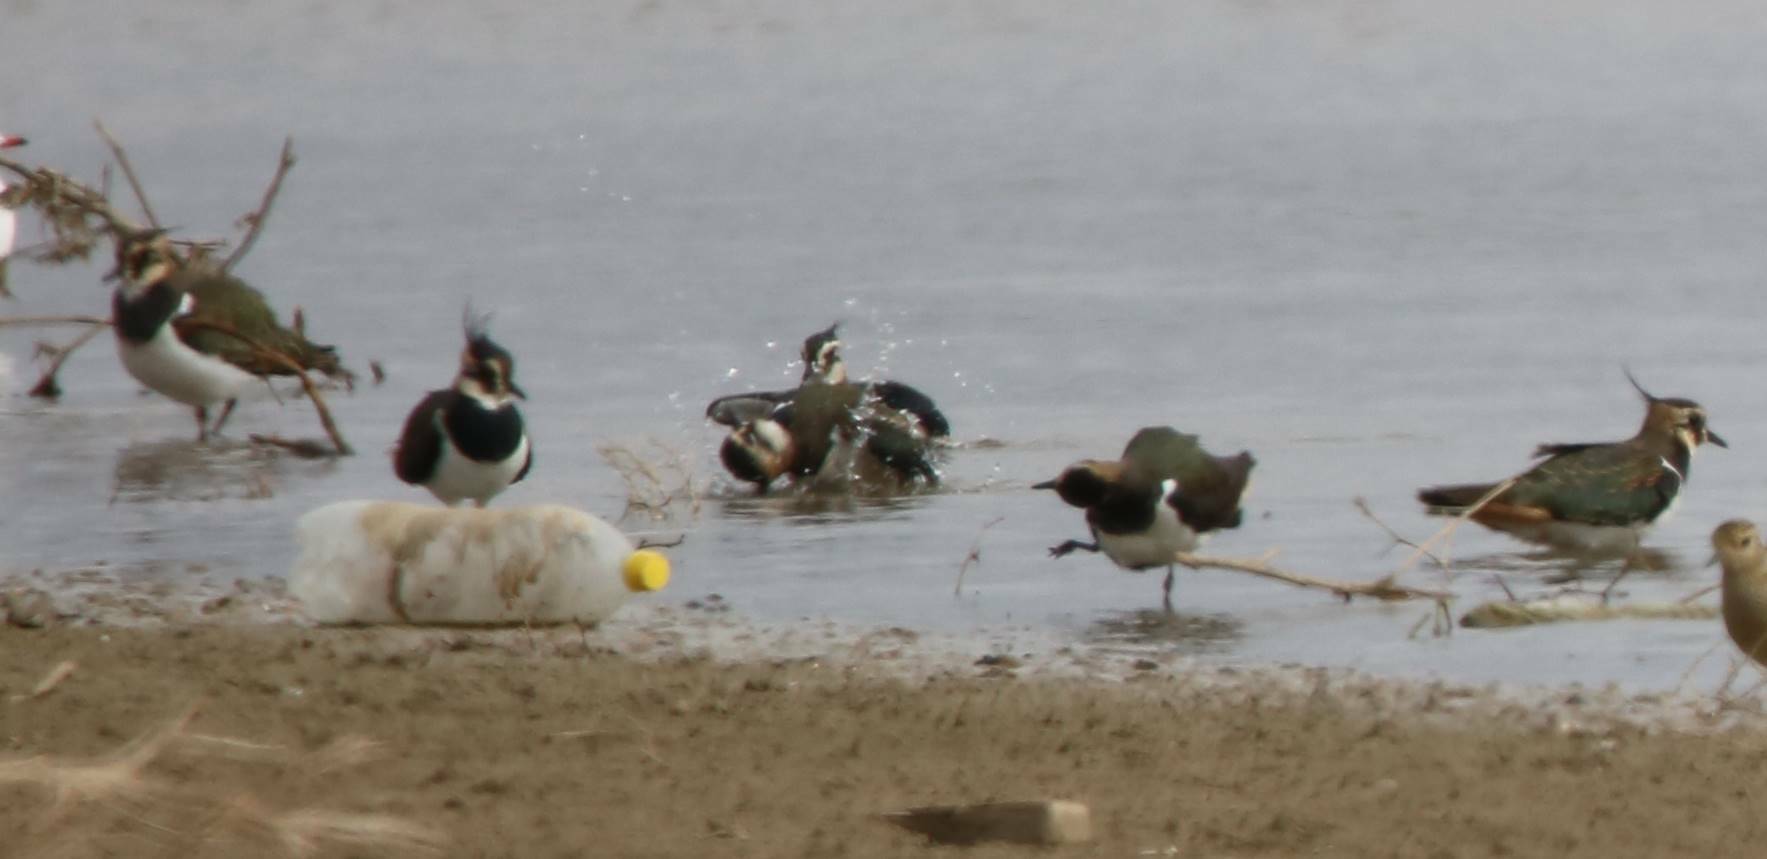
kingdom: Animalia
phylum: Chordata
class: Aves
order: Charadriiformes
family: Charadriidae
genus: Vanellus
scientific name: Vanellus vanellus
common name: Northern lapwing
